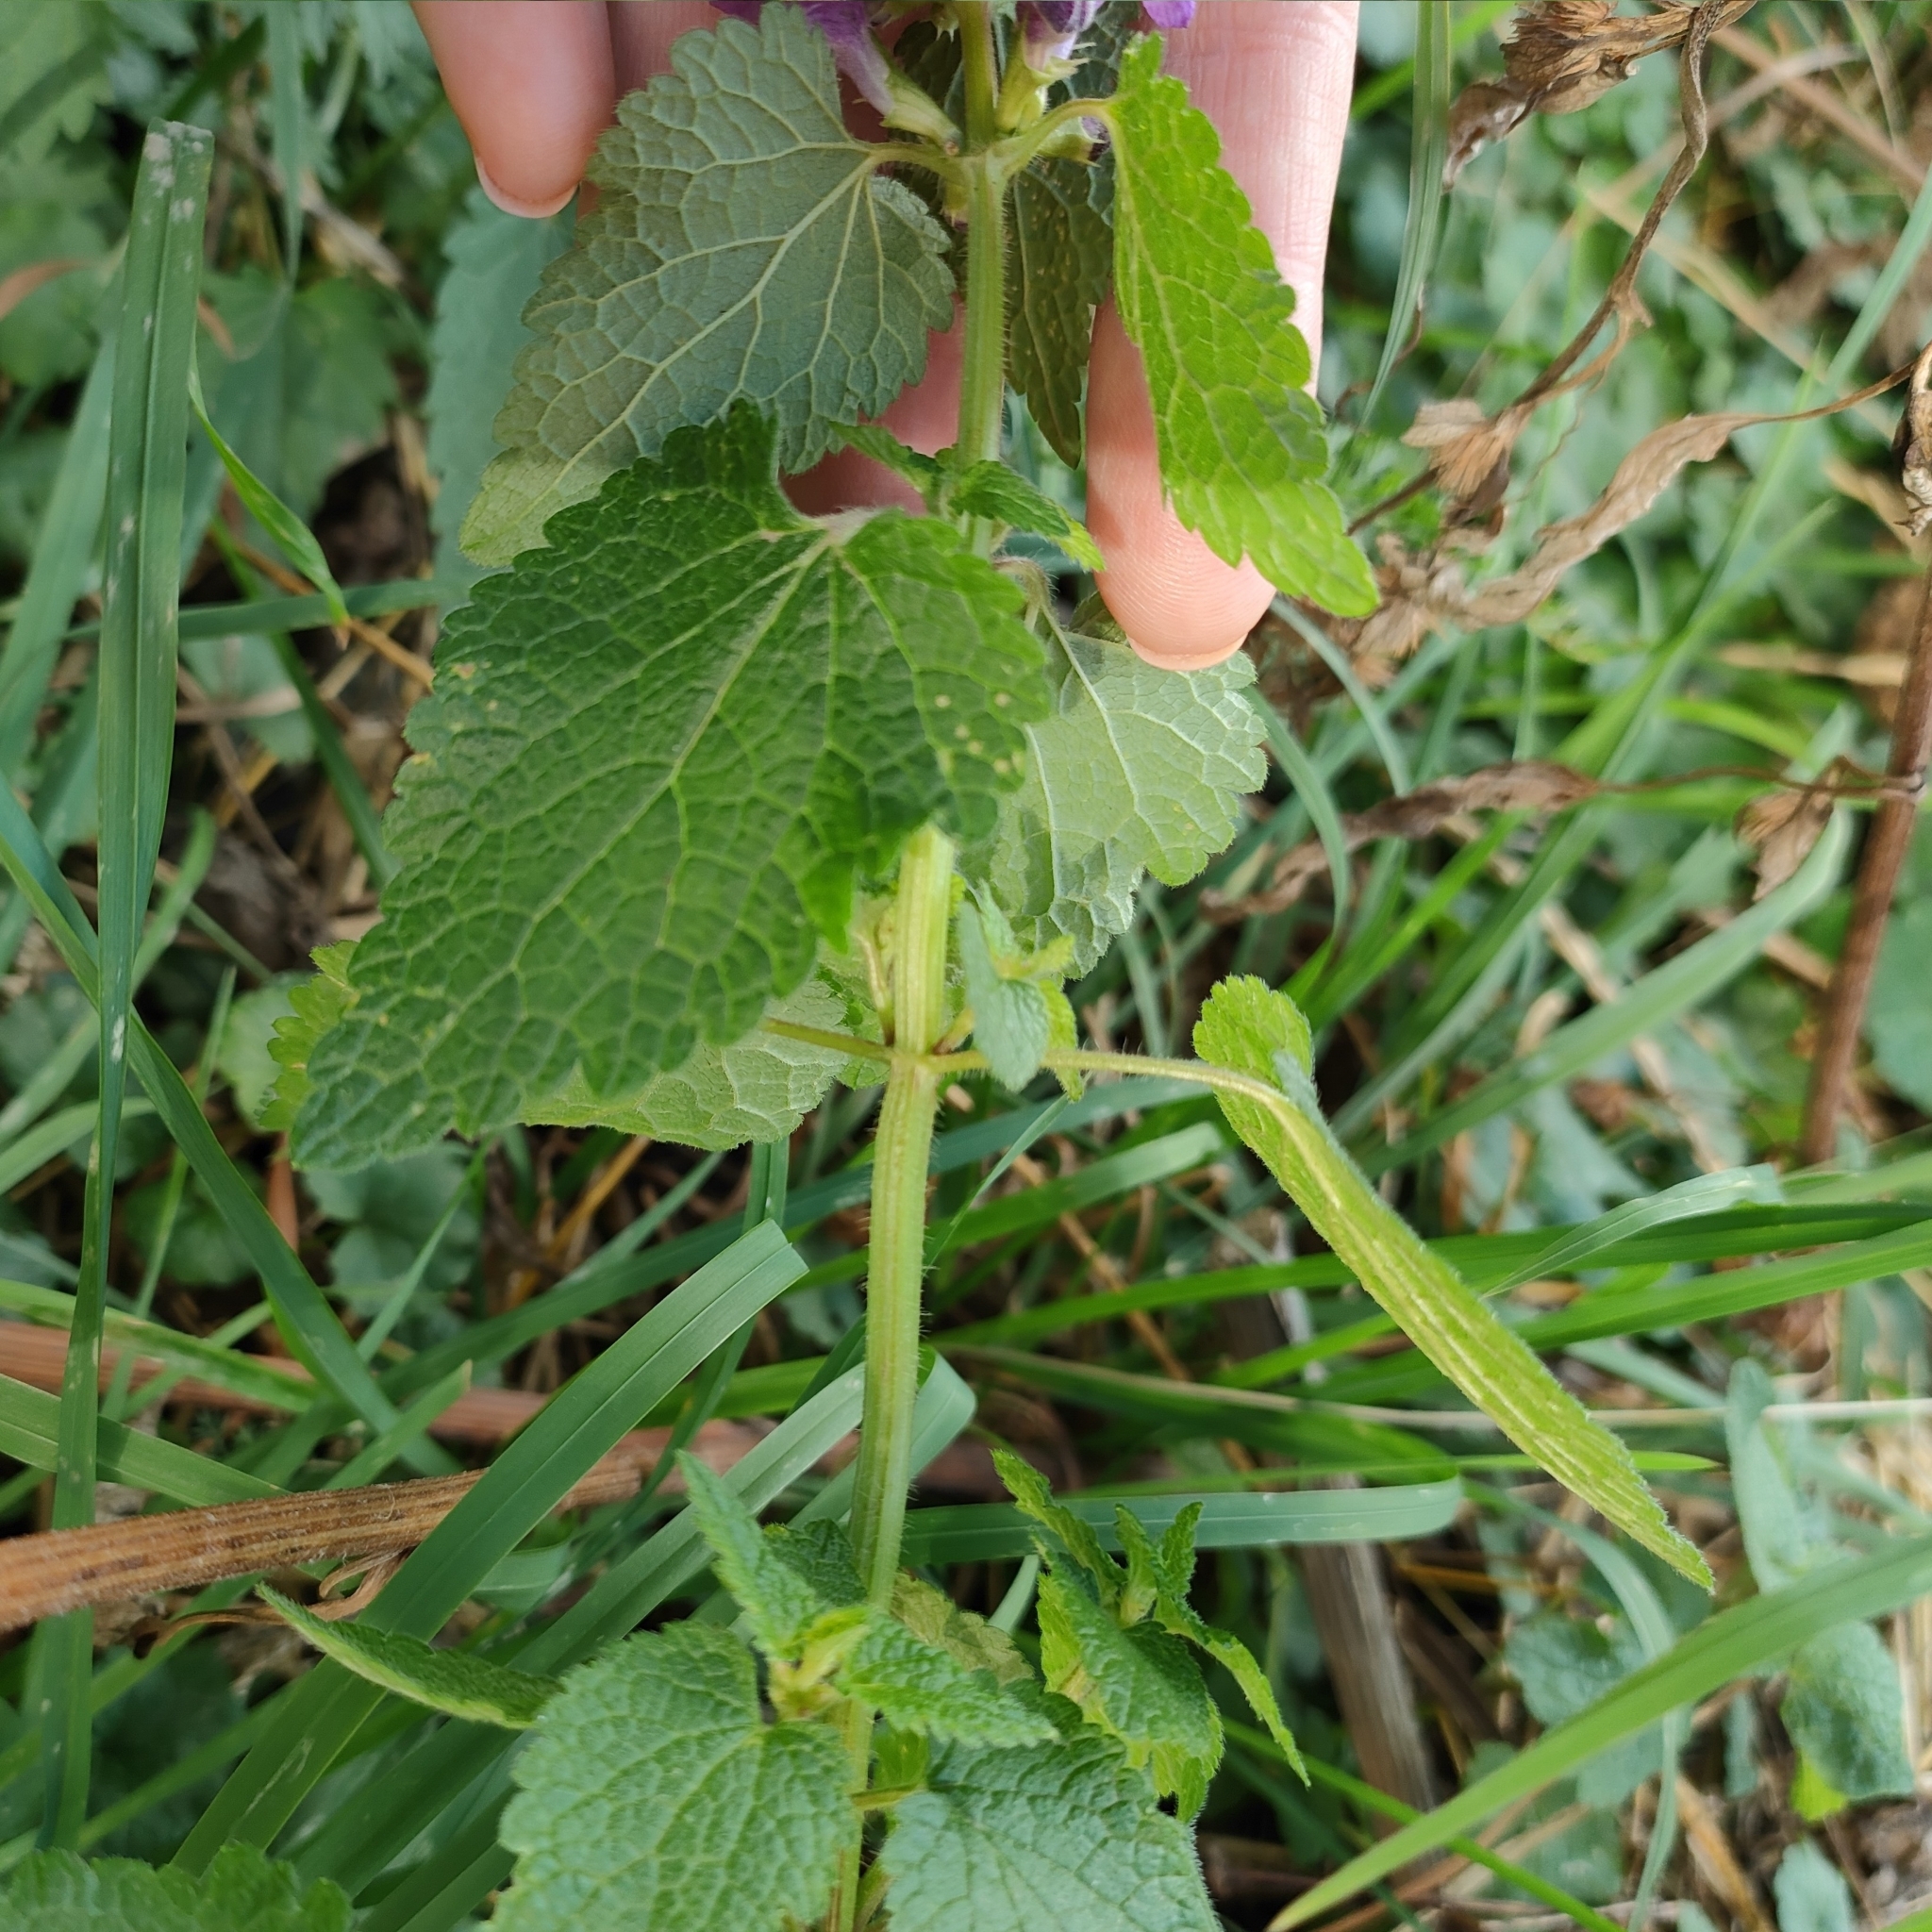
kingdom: Plantae
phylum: Tracheophyta
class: Magnoliopsida
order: Lamiales
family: Lamiaceae
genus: Lamium
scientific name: Lamium maculatum
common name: Spotted dead-nettle
